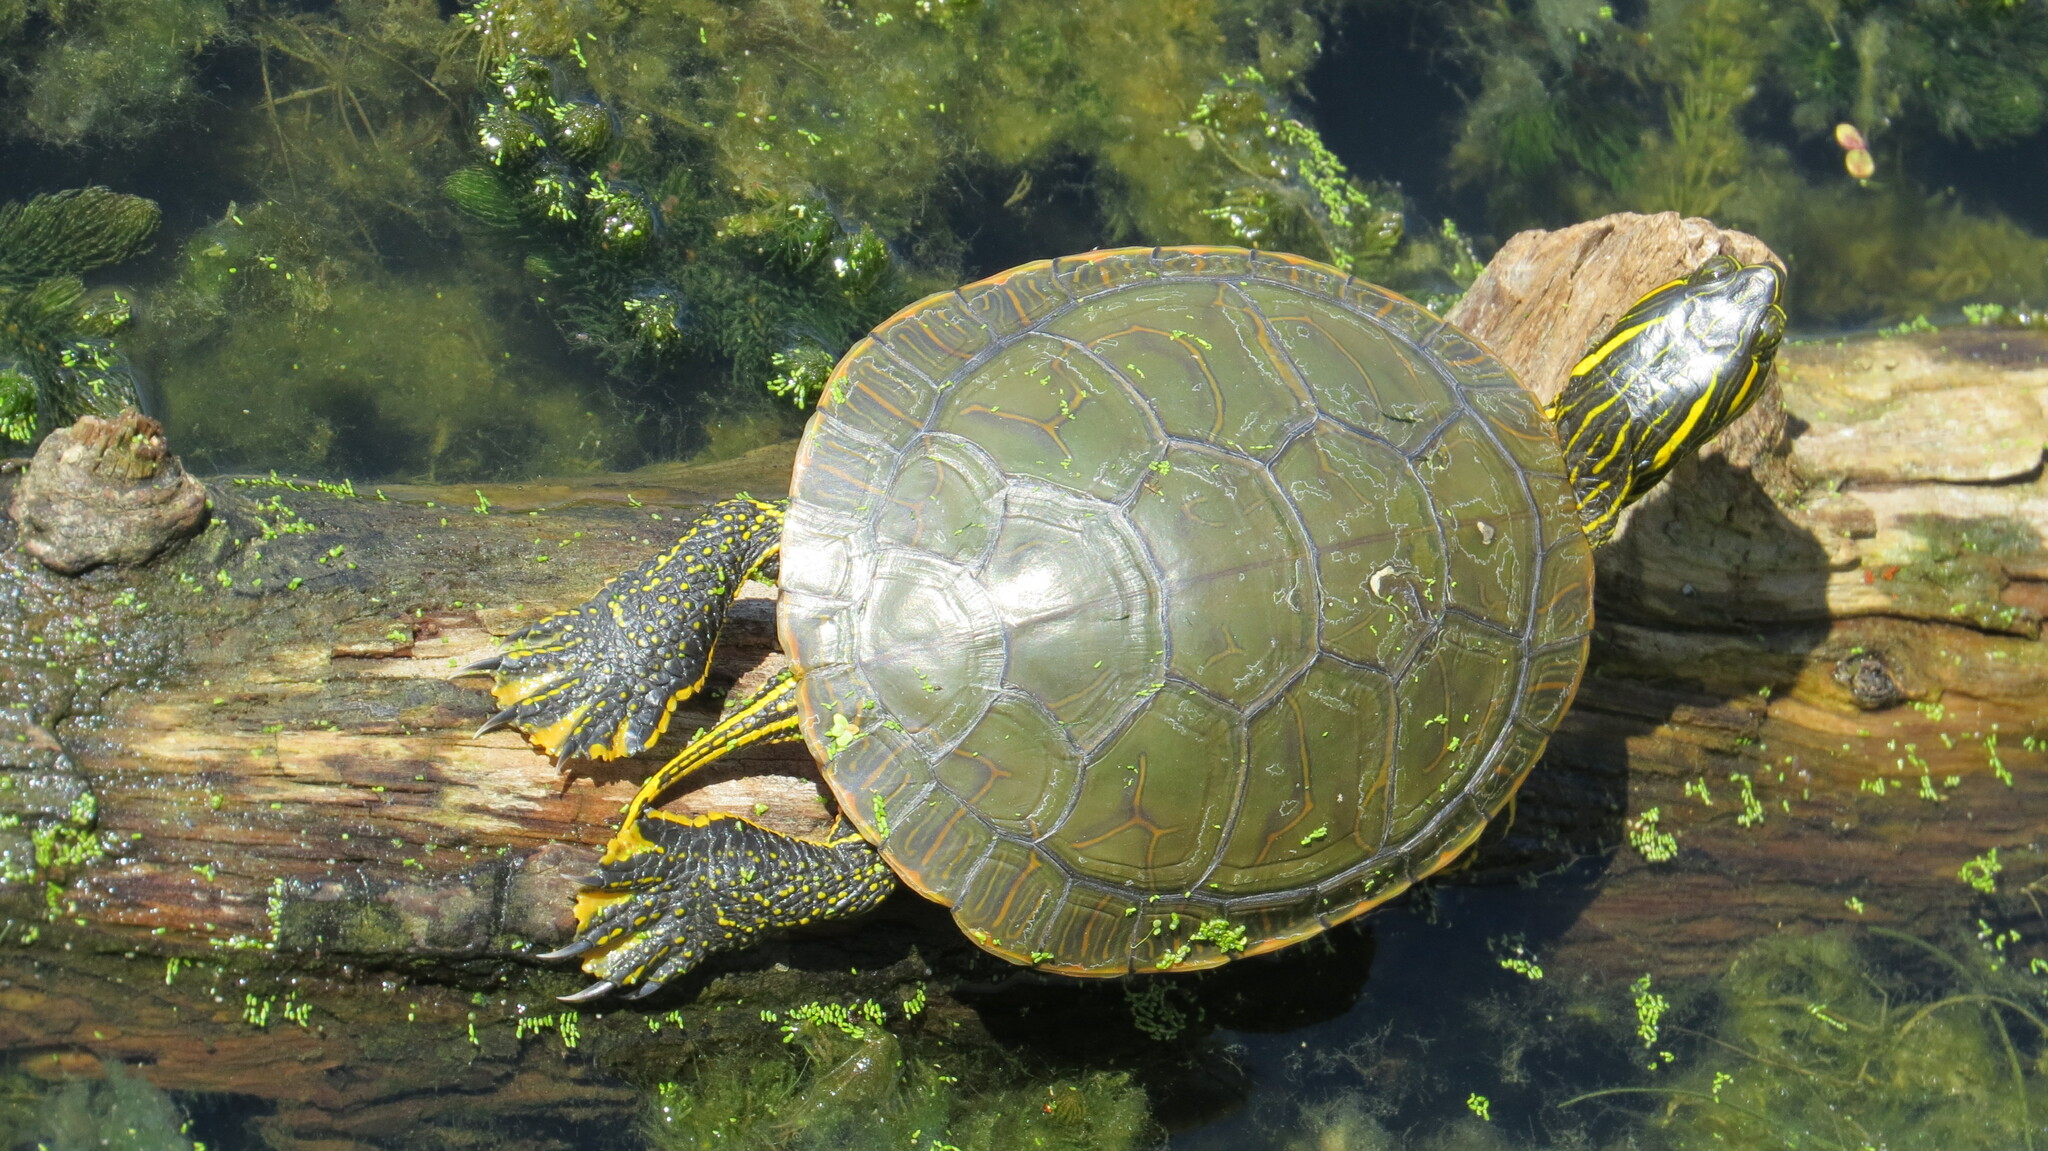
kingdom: Animalia
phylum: Chordata
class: Testudines
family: Emydidae
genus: Chrysemys
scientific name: Chrysemys picta
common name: Painted turtle
